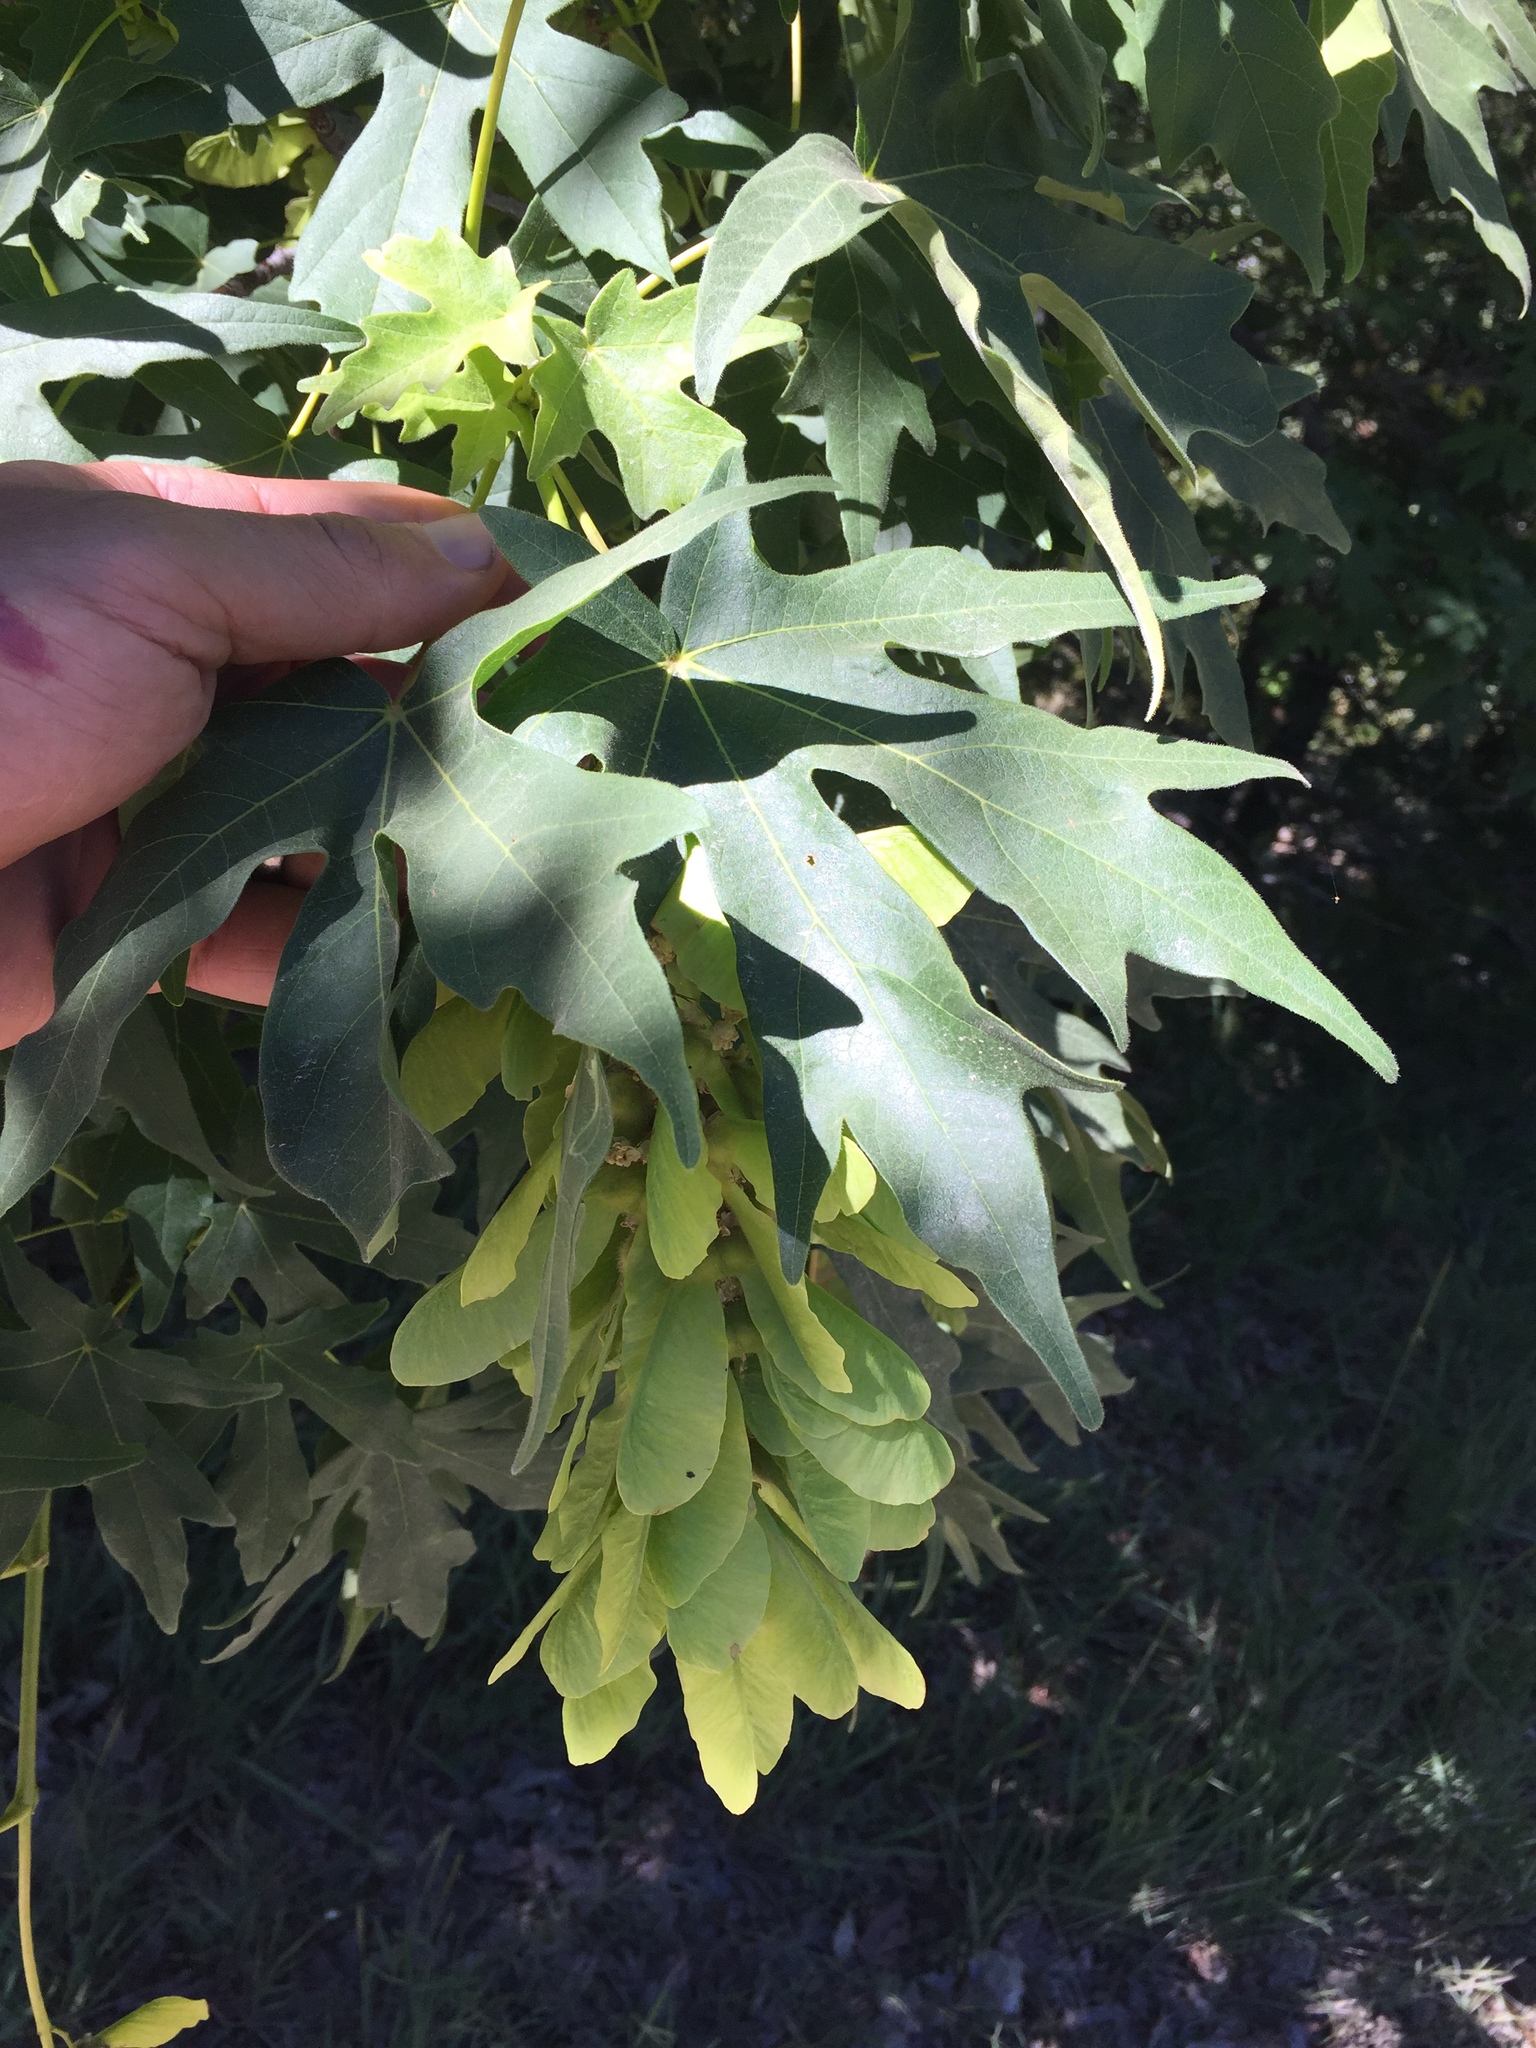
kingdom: Plantae
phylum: Tracheophyta
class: Magnoliopsida
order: Sapindales
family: Sapindaceae
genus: Acer
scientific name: Acer macrophyllum
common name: Oregon maple
